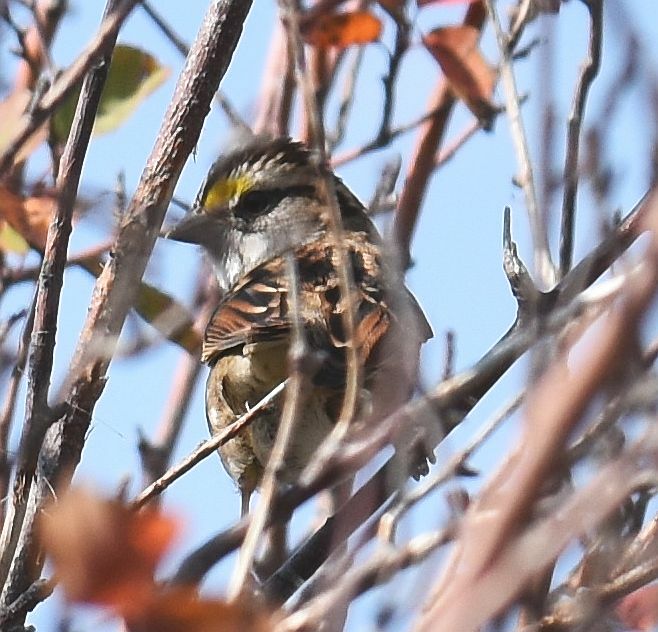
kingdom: Animalia
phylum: Chordata
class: Aves
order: Passeriformes
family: Passerellidae
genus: Zonotrichia
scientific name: Zonotrichia albicollis
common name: White-throated sparrow
